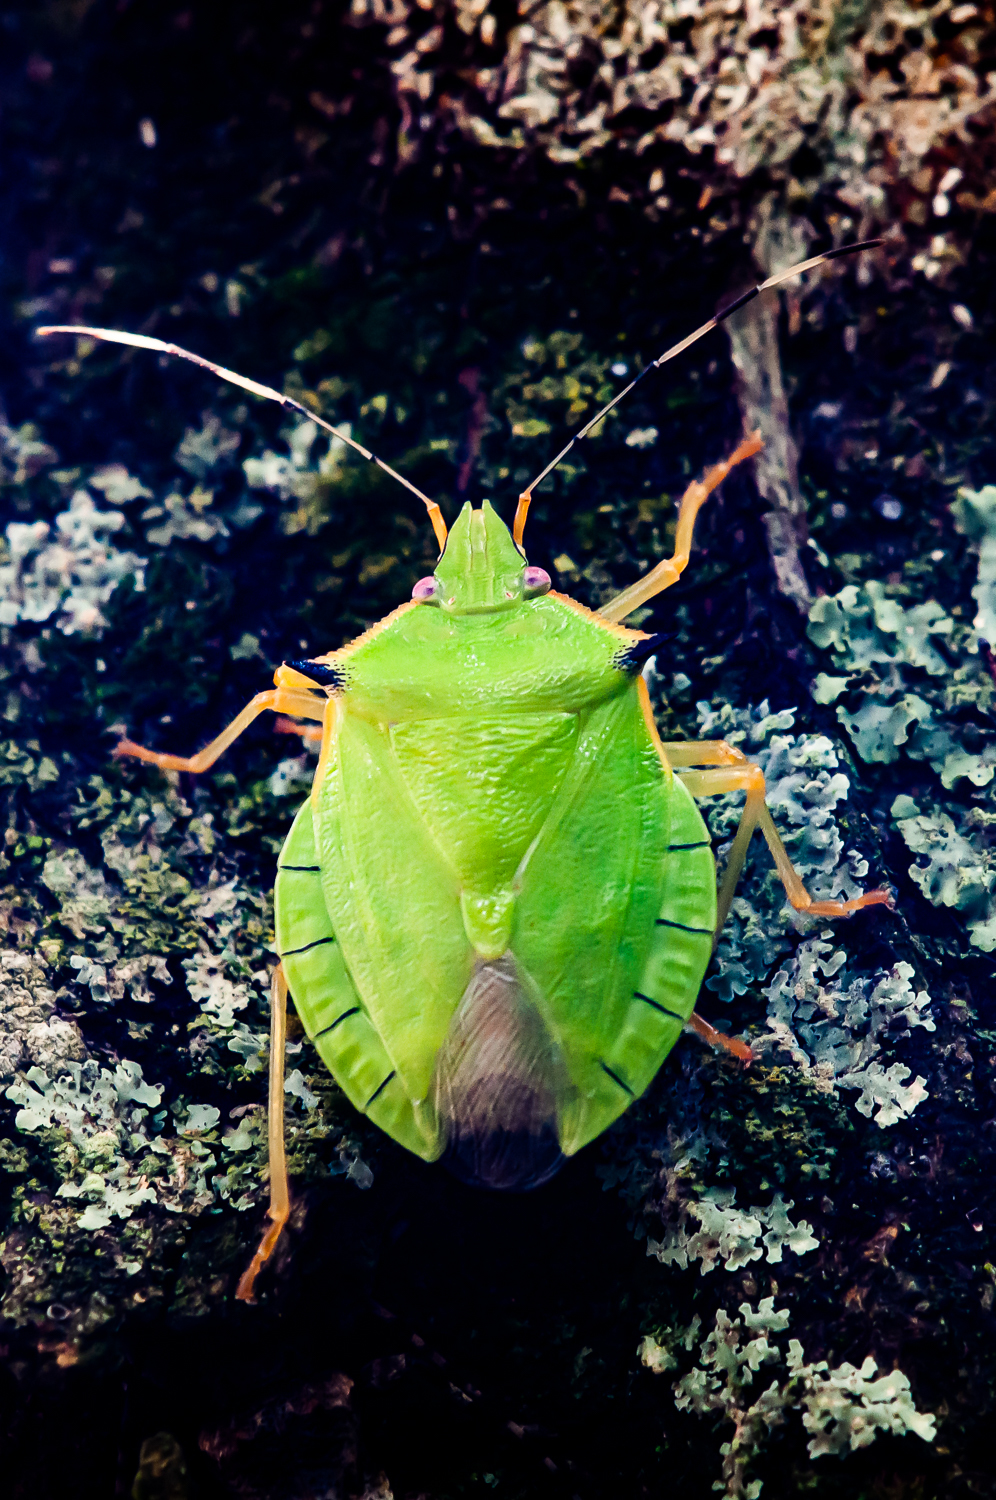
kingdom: Animalia
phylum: Arthropoda
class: Insecta
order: Hemiptera
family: Pentatomidae
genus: Chlorocoris
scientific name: Chlorocoris distinctus
